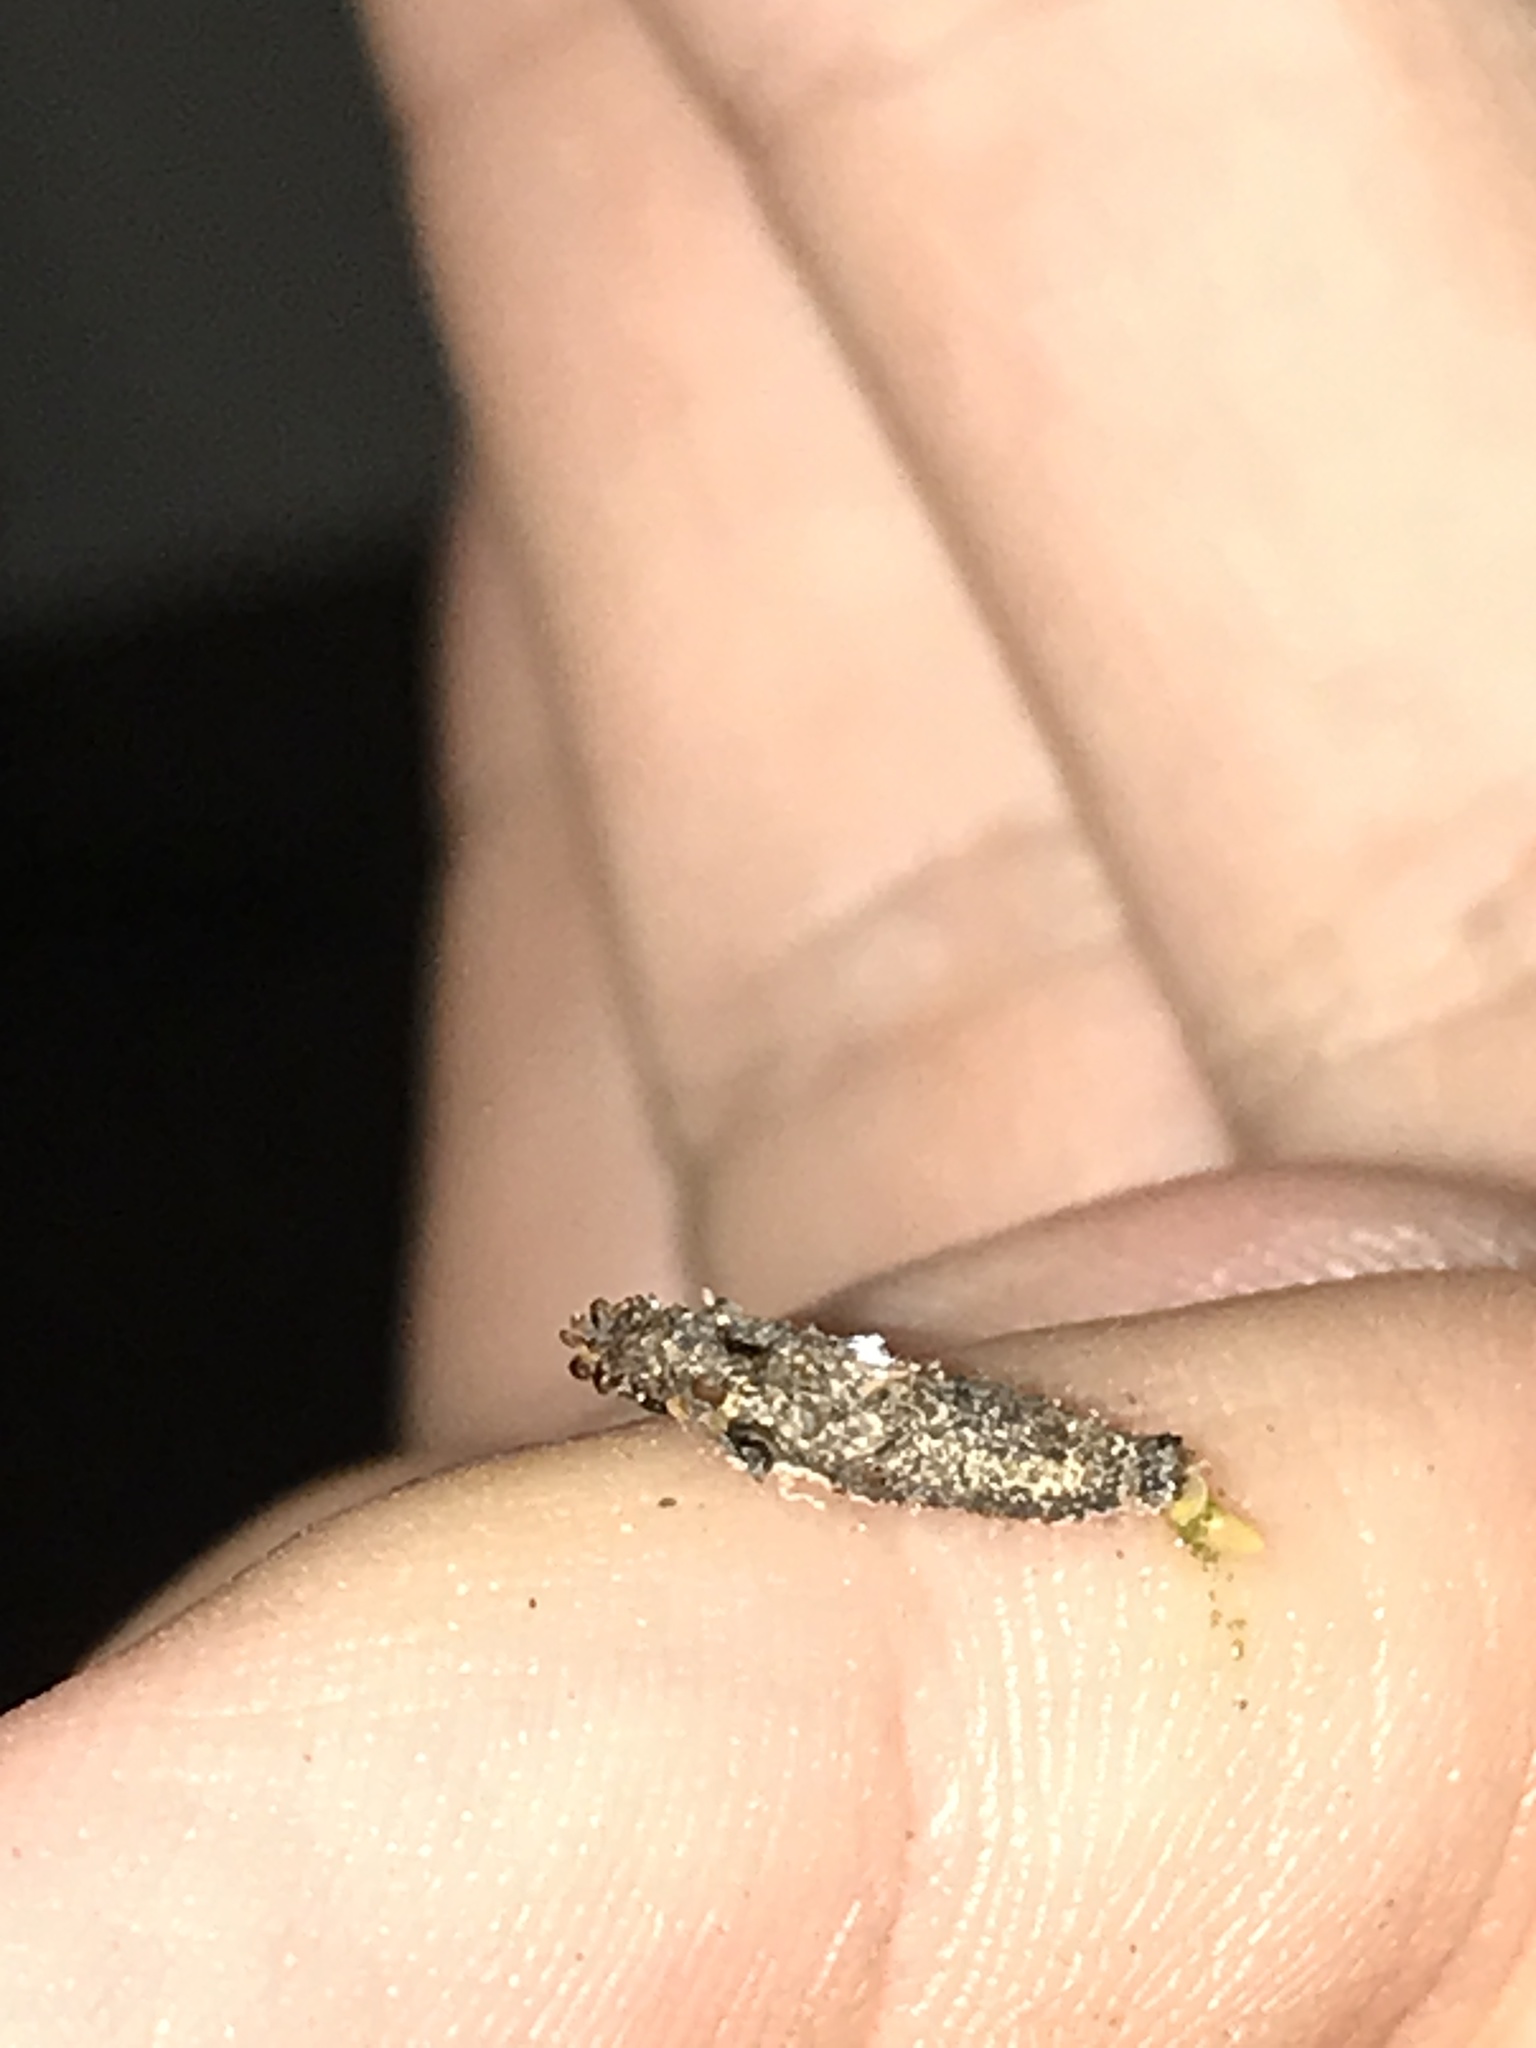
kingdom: Animalia
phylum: Arthropoda
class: Insecta
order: Lepidoptera
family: Psychidae
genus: Dahlica
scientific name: Dahlica walshella
